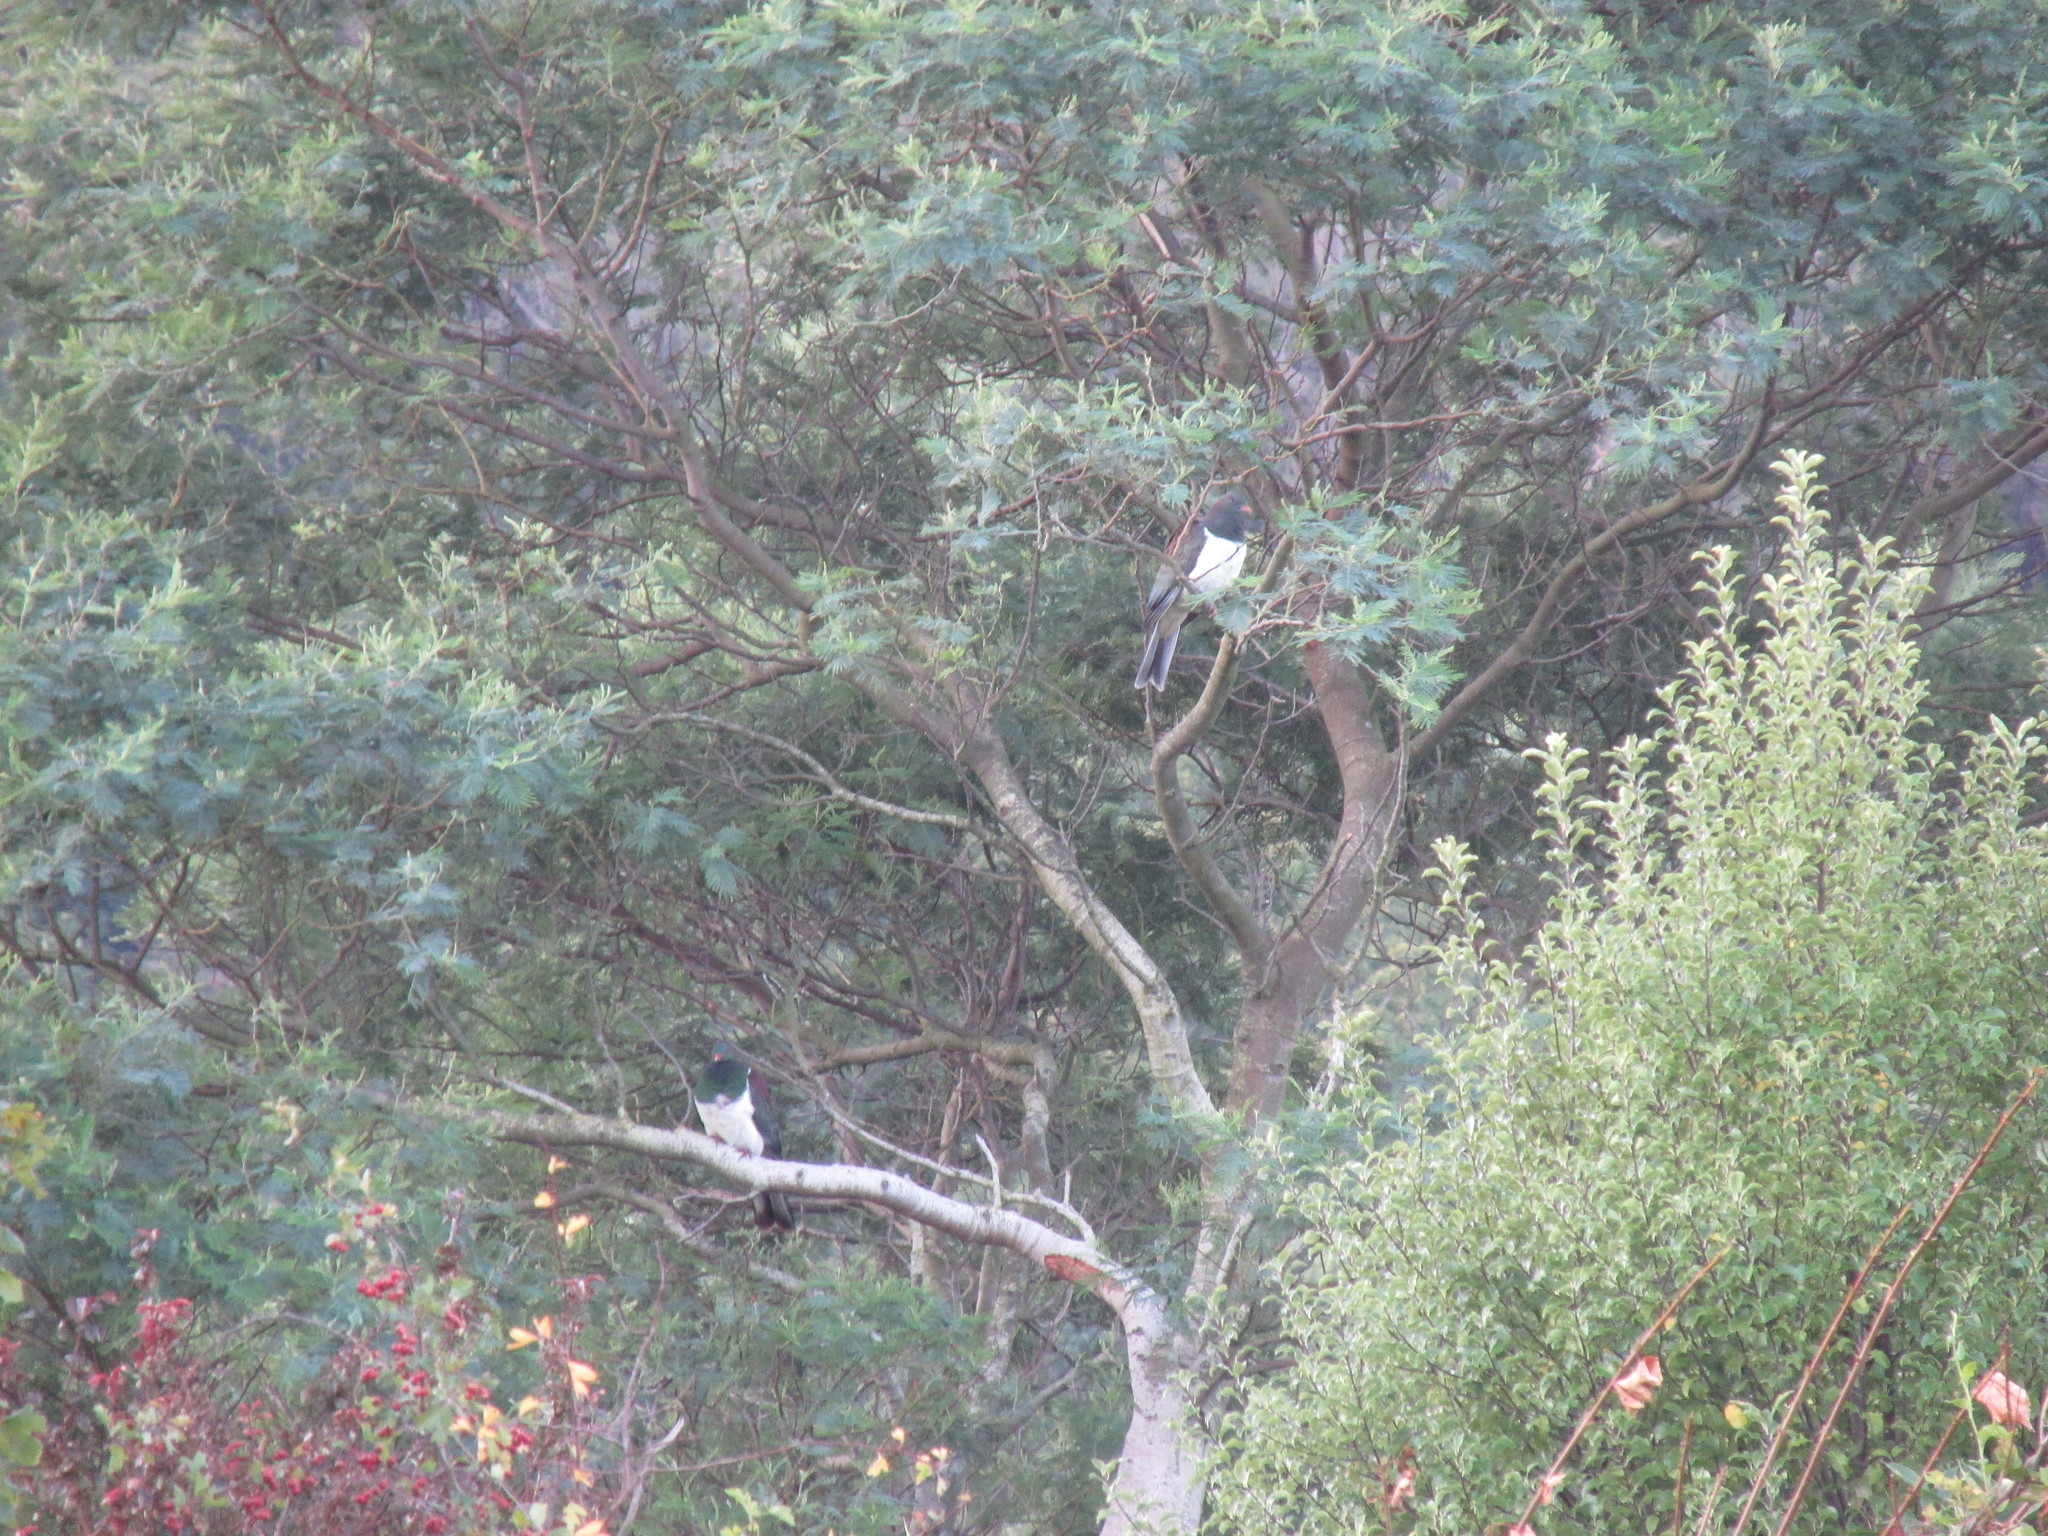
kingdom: Animalia
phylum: Chordata
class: Aves
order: Columbiformes
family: Columbidae
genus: Hemiphaga
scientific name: Hemiphaga novaeseelandiae
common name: New zealand pigeon
